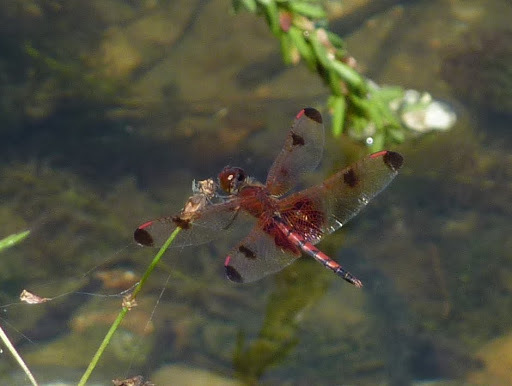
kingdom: Animalia
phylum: Arthropoda
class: Insecta
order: Odonata
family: Libellulidae
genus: Celithemis
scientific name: Celithemis elisa
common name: Calico pennant
